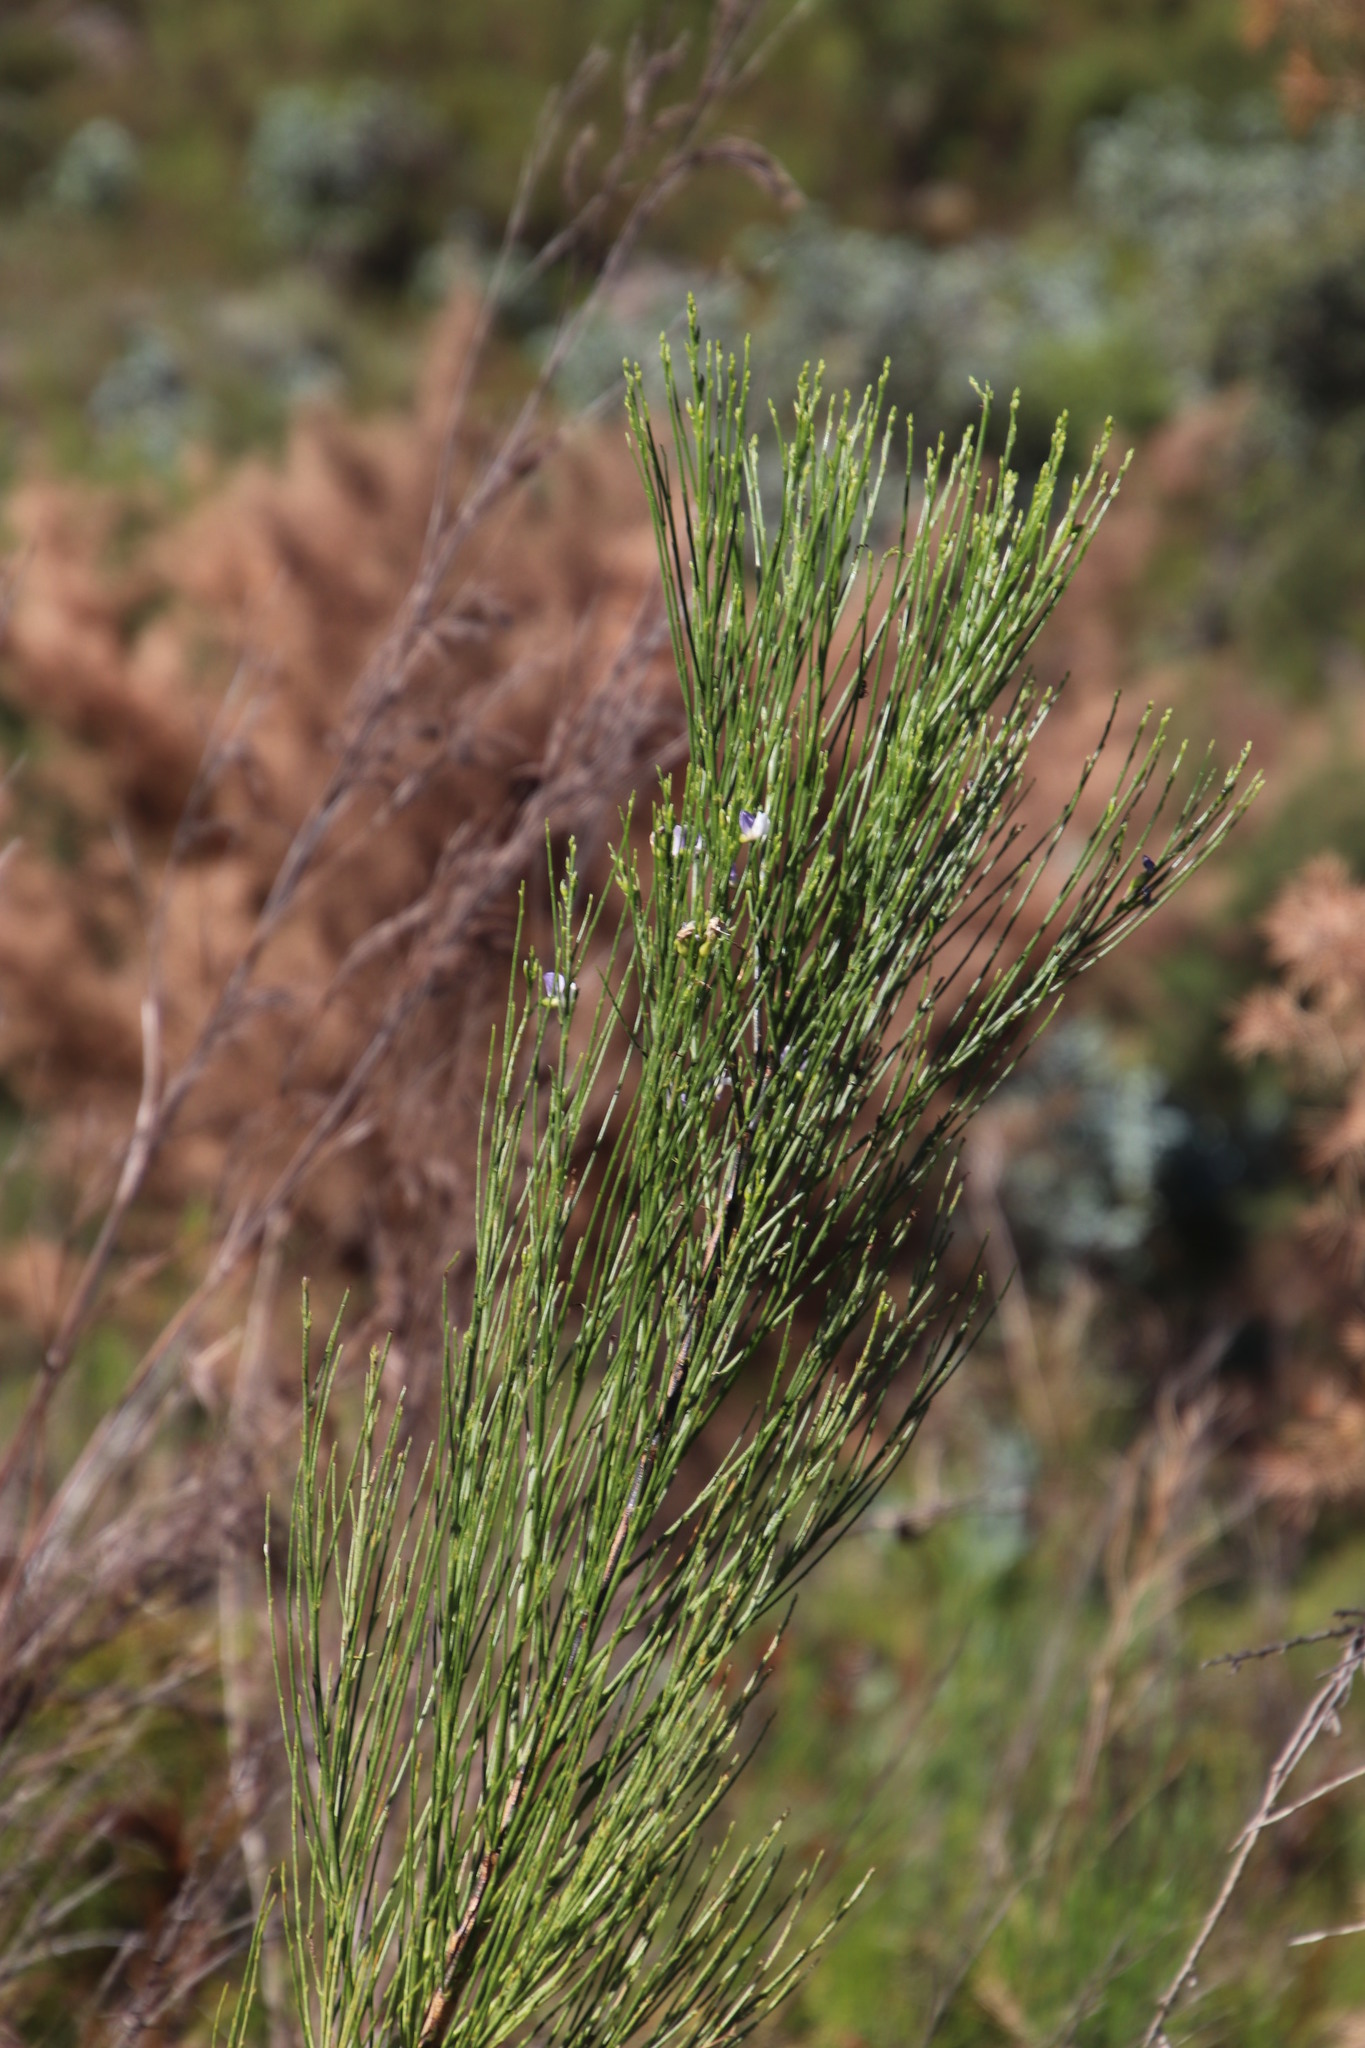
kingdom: Plantae
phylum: Tracheophyta
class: Magnoliopsida
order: Fabales
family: Fabaceae
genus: Psoralea
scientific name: Psoralea usitata
